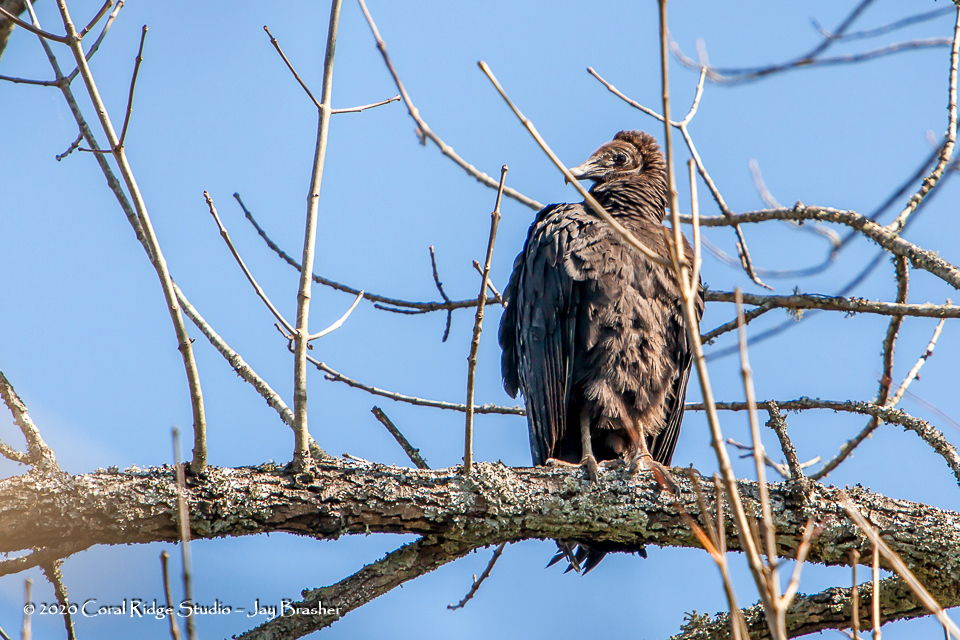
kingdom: Animalia
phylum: Chordata
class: Aves
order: Accipitriformes
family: Cathartidae
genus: Coragyps
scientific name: Coragyps atratus
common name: Black vulture
